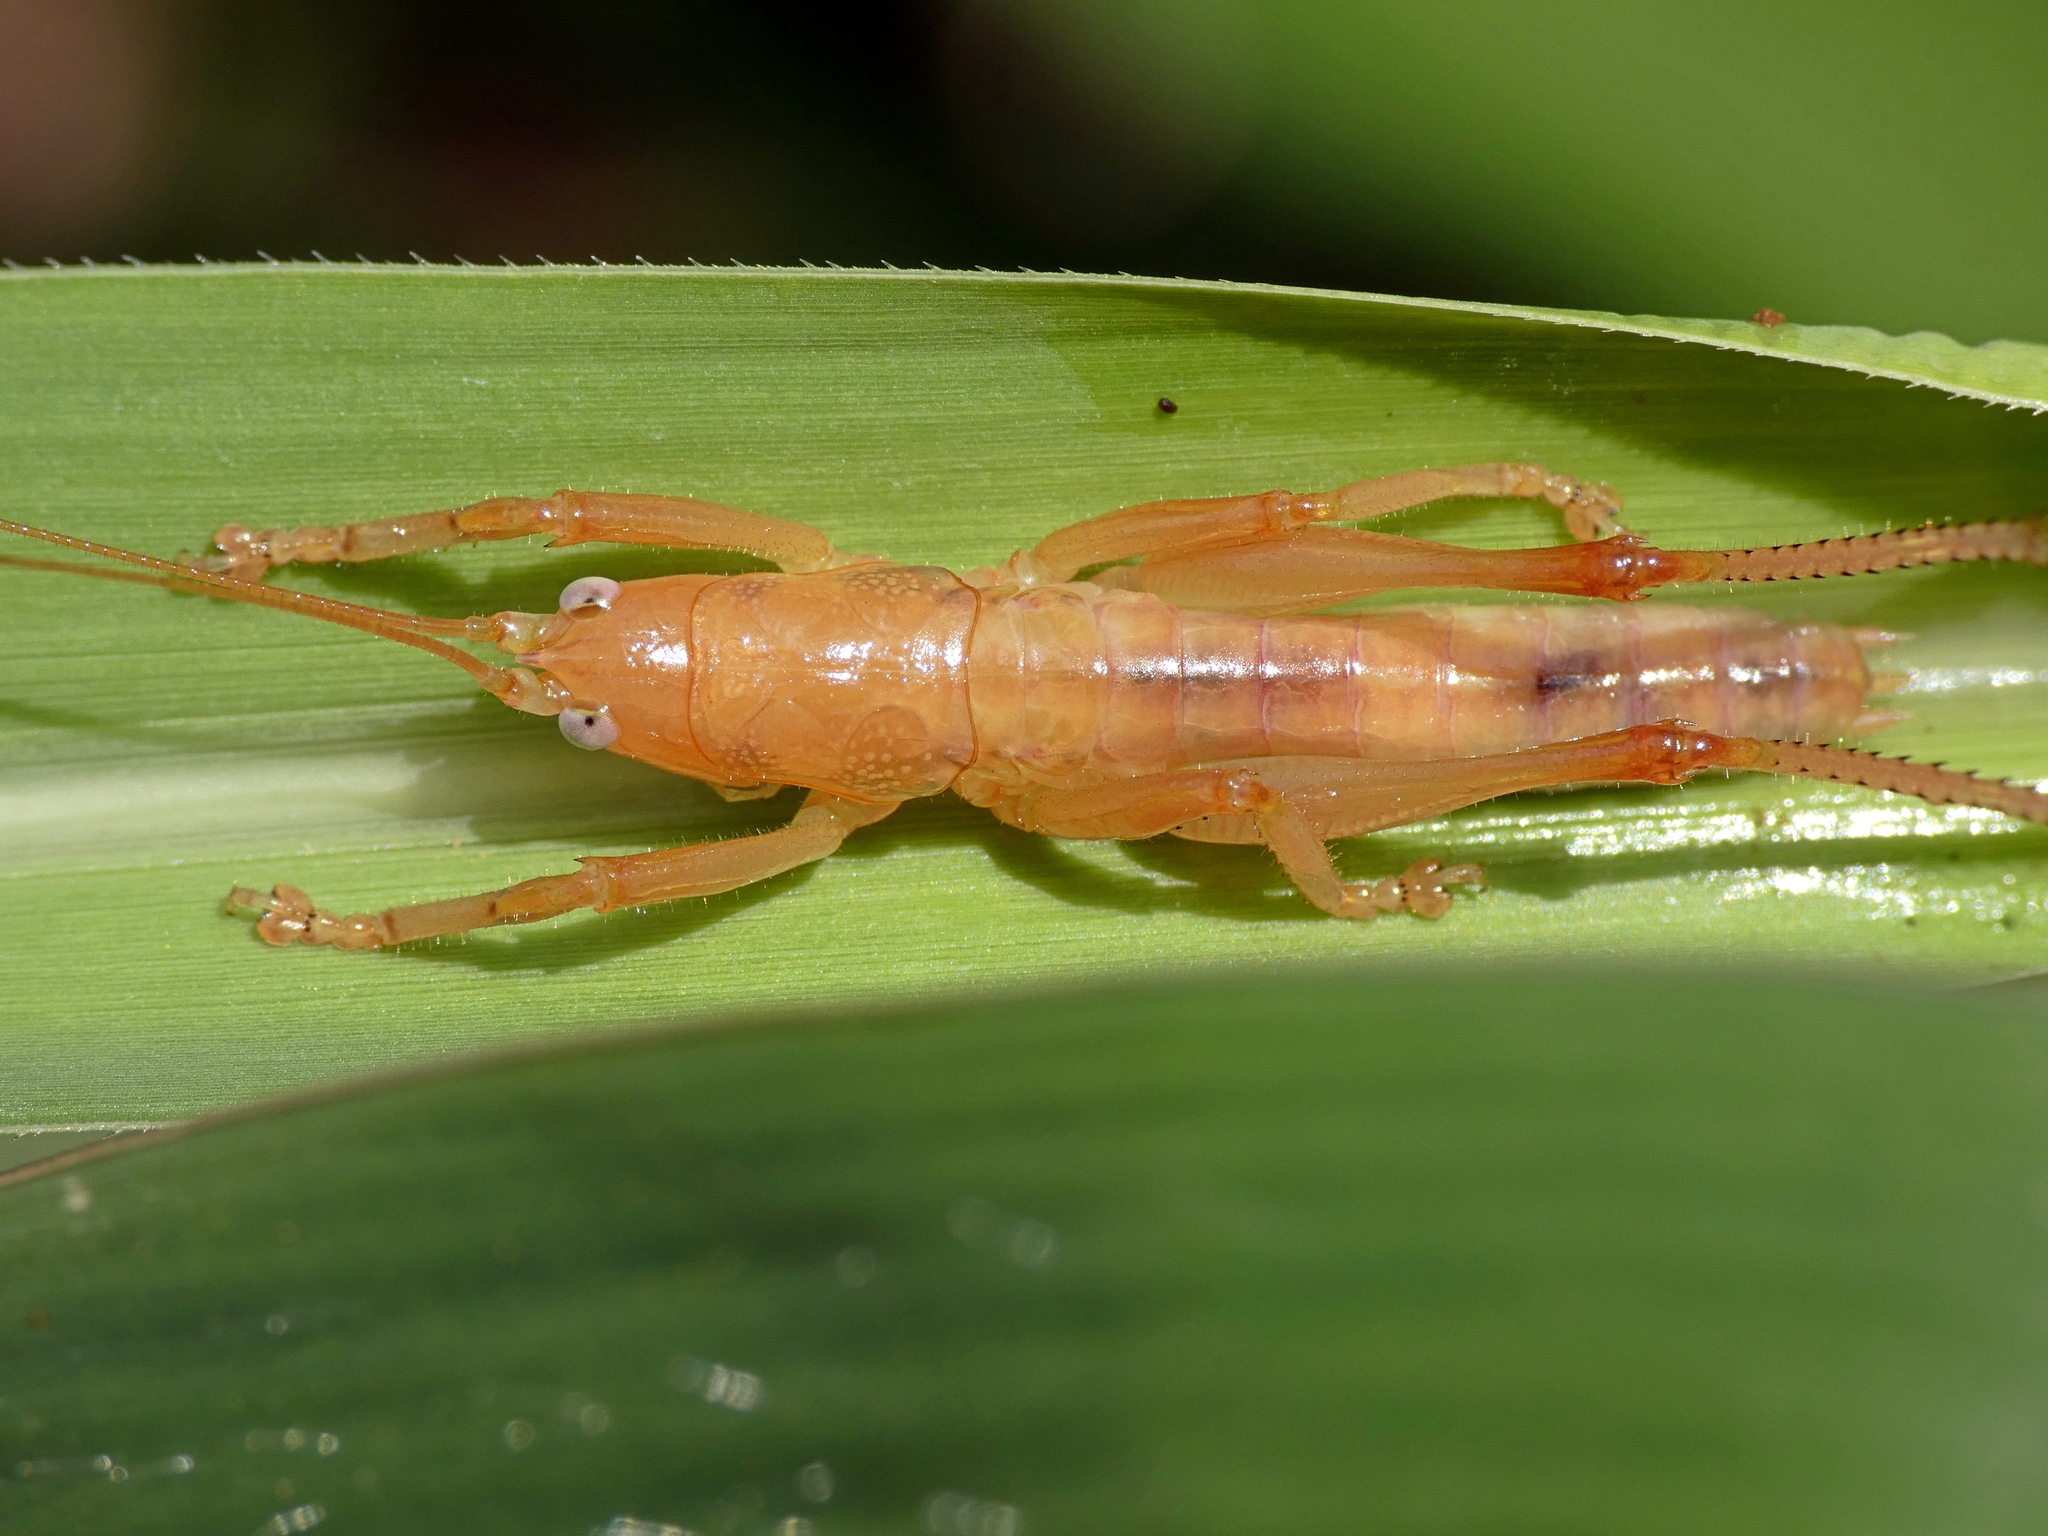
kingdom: Animalia
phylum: Arthropoda
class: Insecta
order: Orthoptera
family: Tettigoniidae
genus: Goodangarkia
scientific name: Goodangarkia oedicephala
